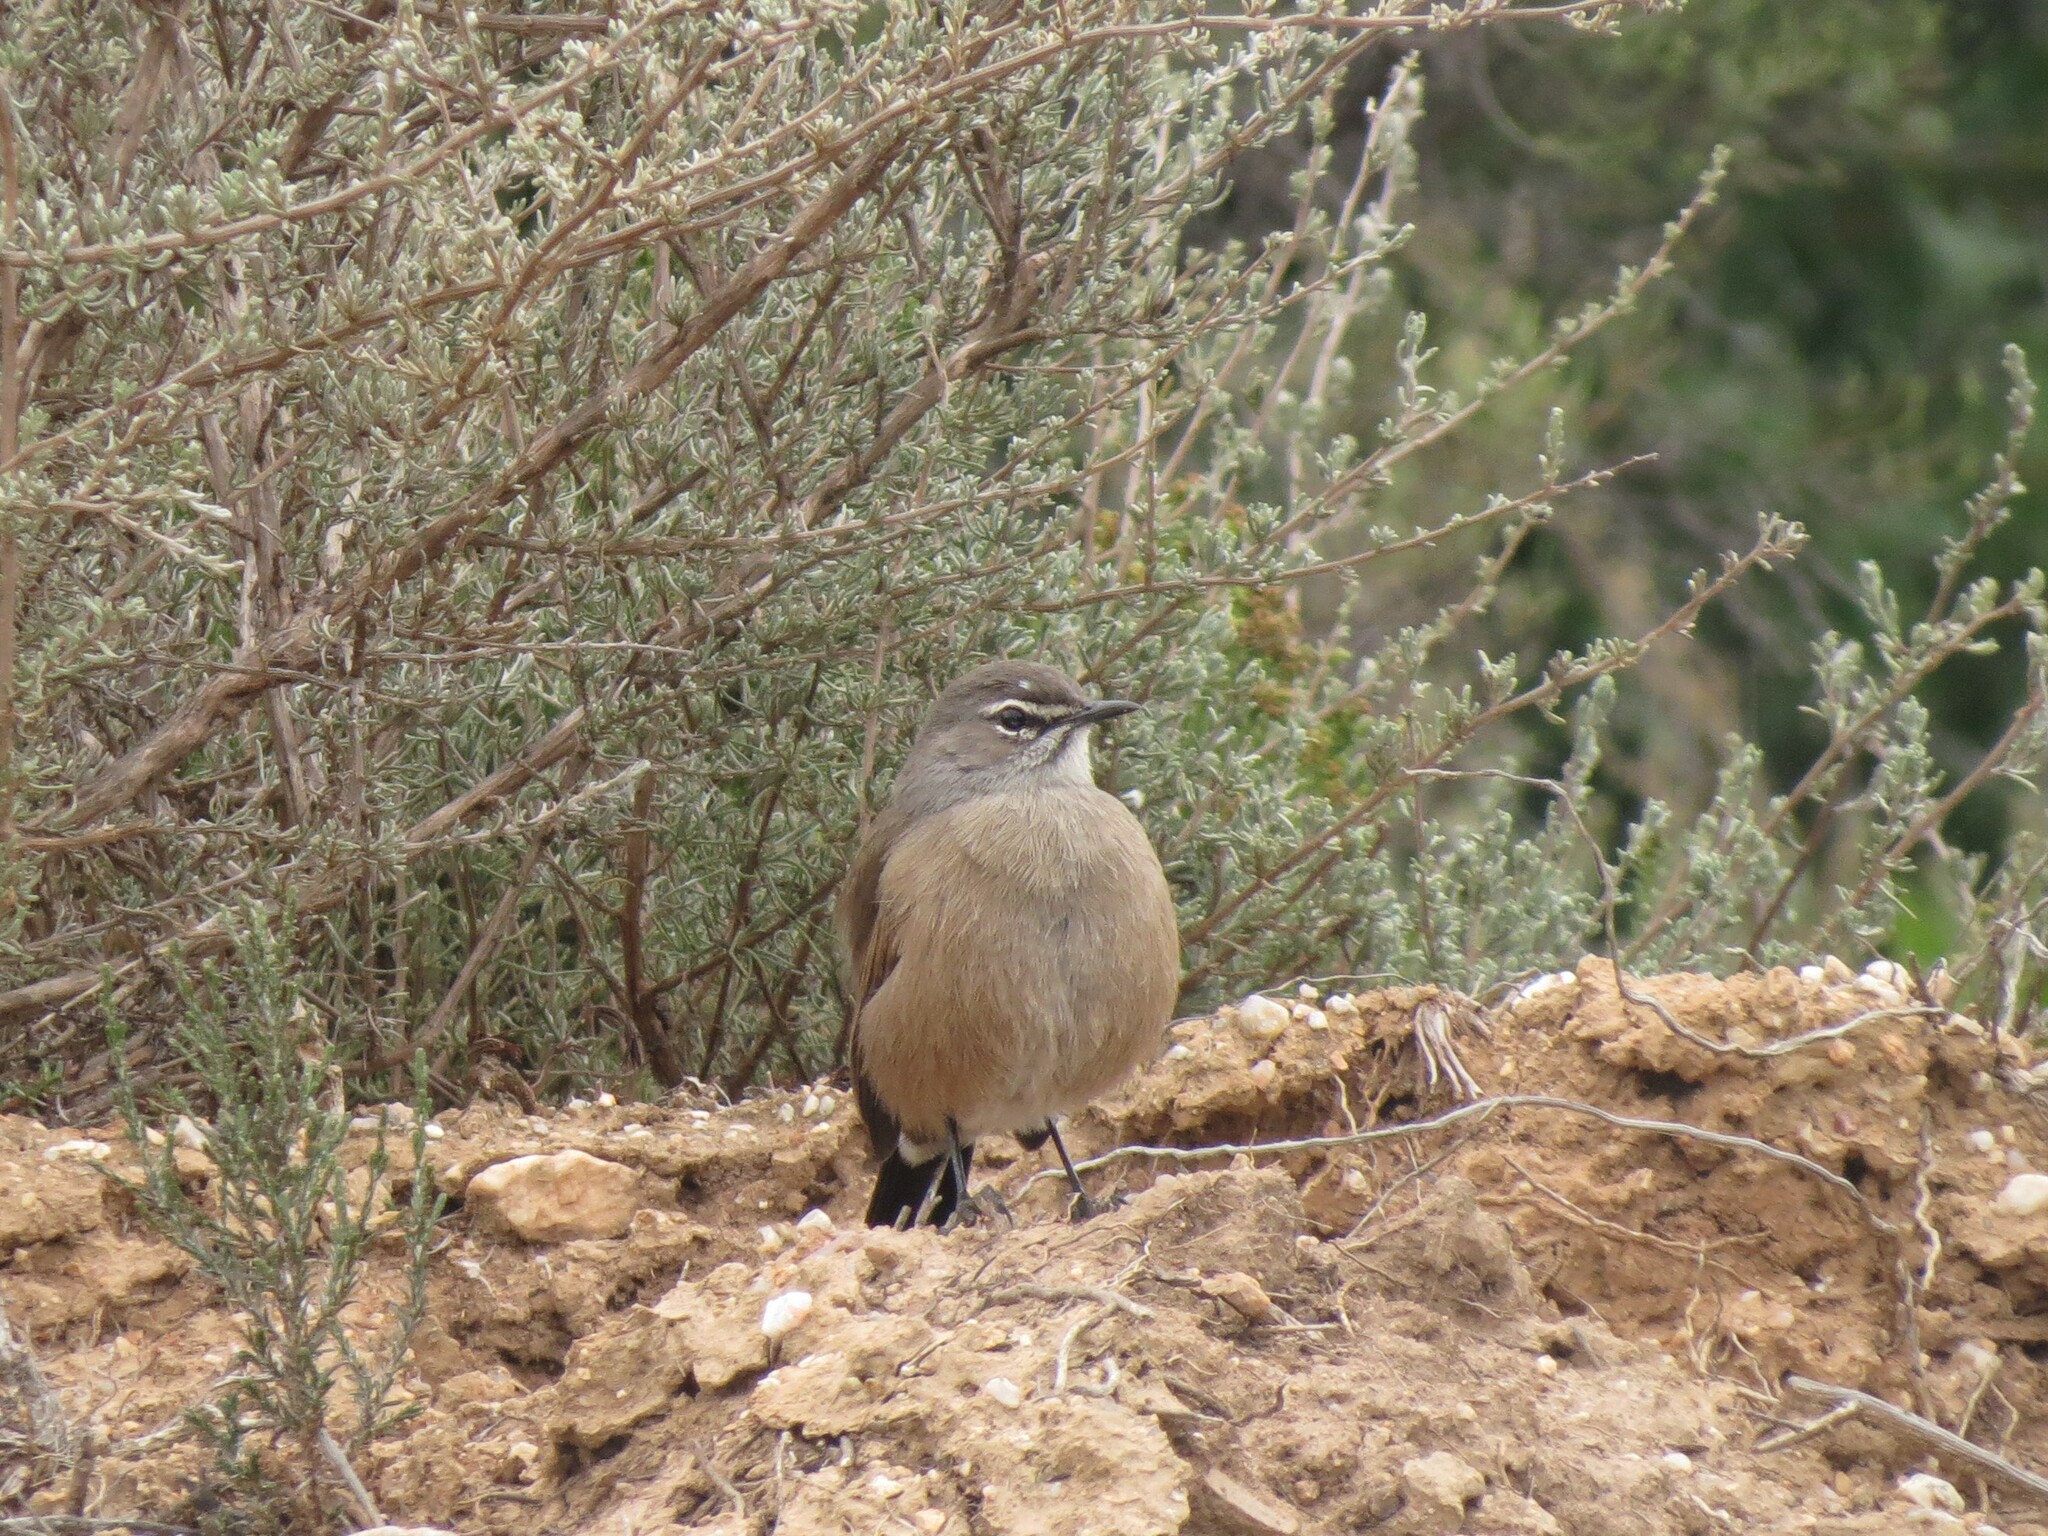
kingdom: Animalia
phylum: Chordata
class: Aves
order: Passeriformes
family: Muscicapidae
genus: Erythropygia
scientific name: Erythropygia coryphoeus
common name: Karoo scrub robin
